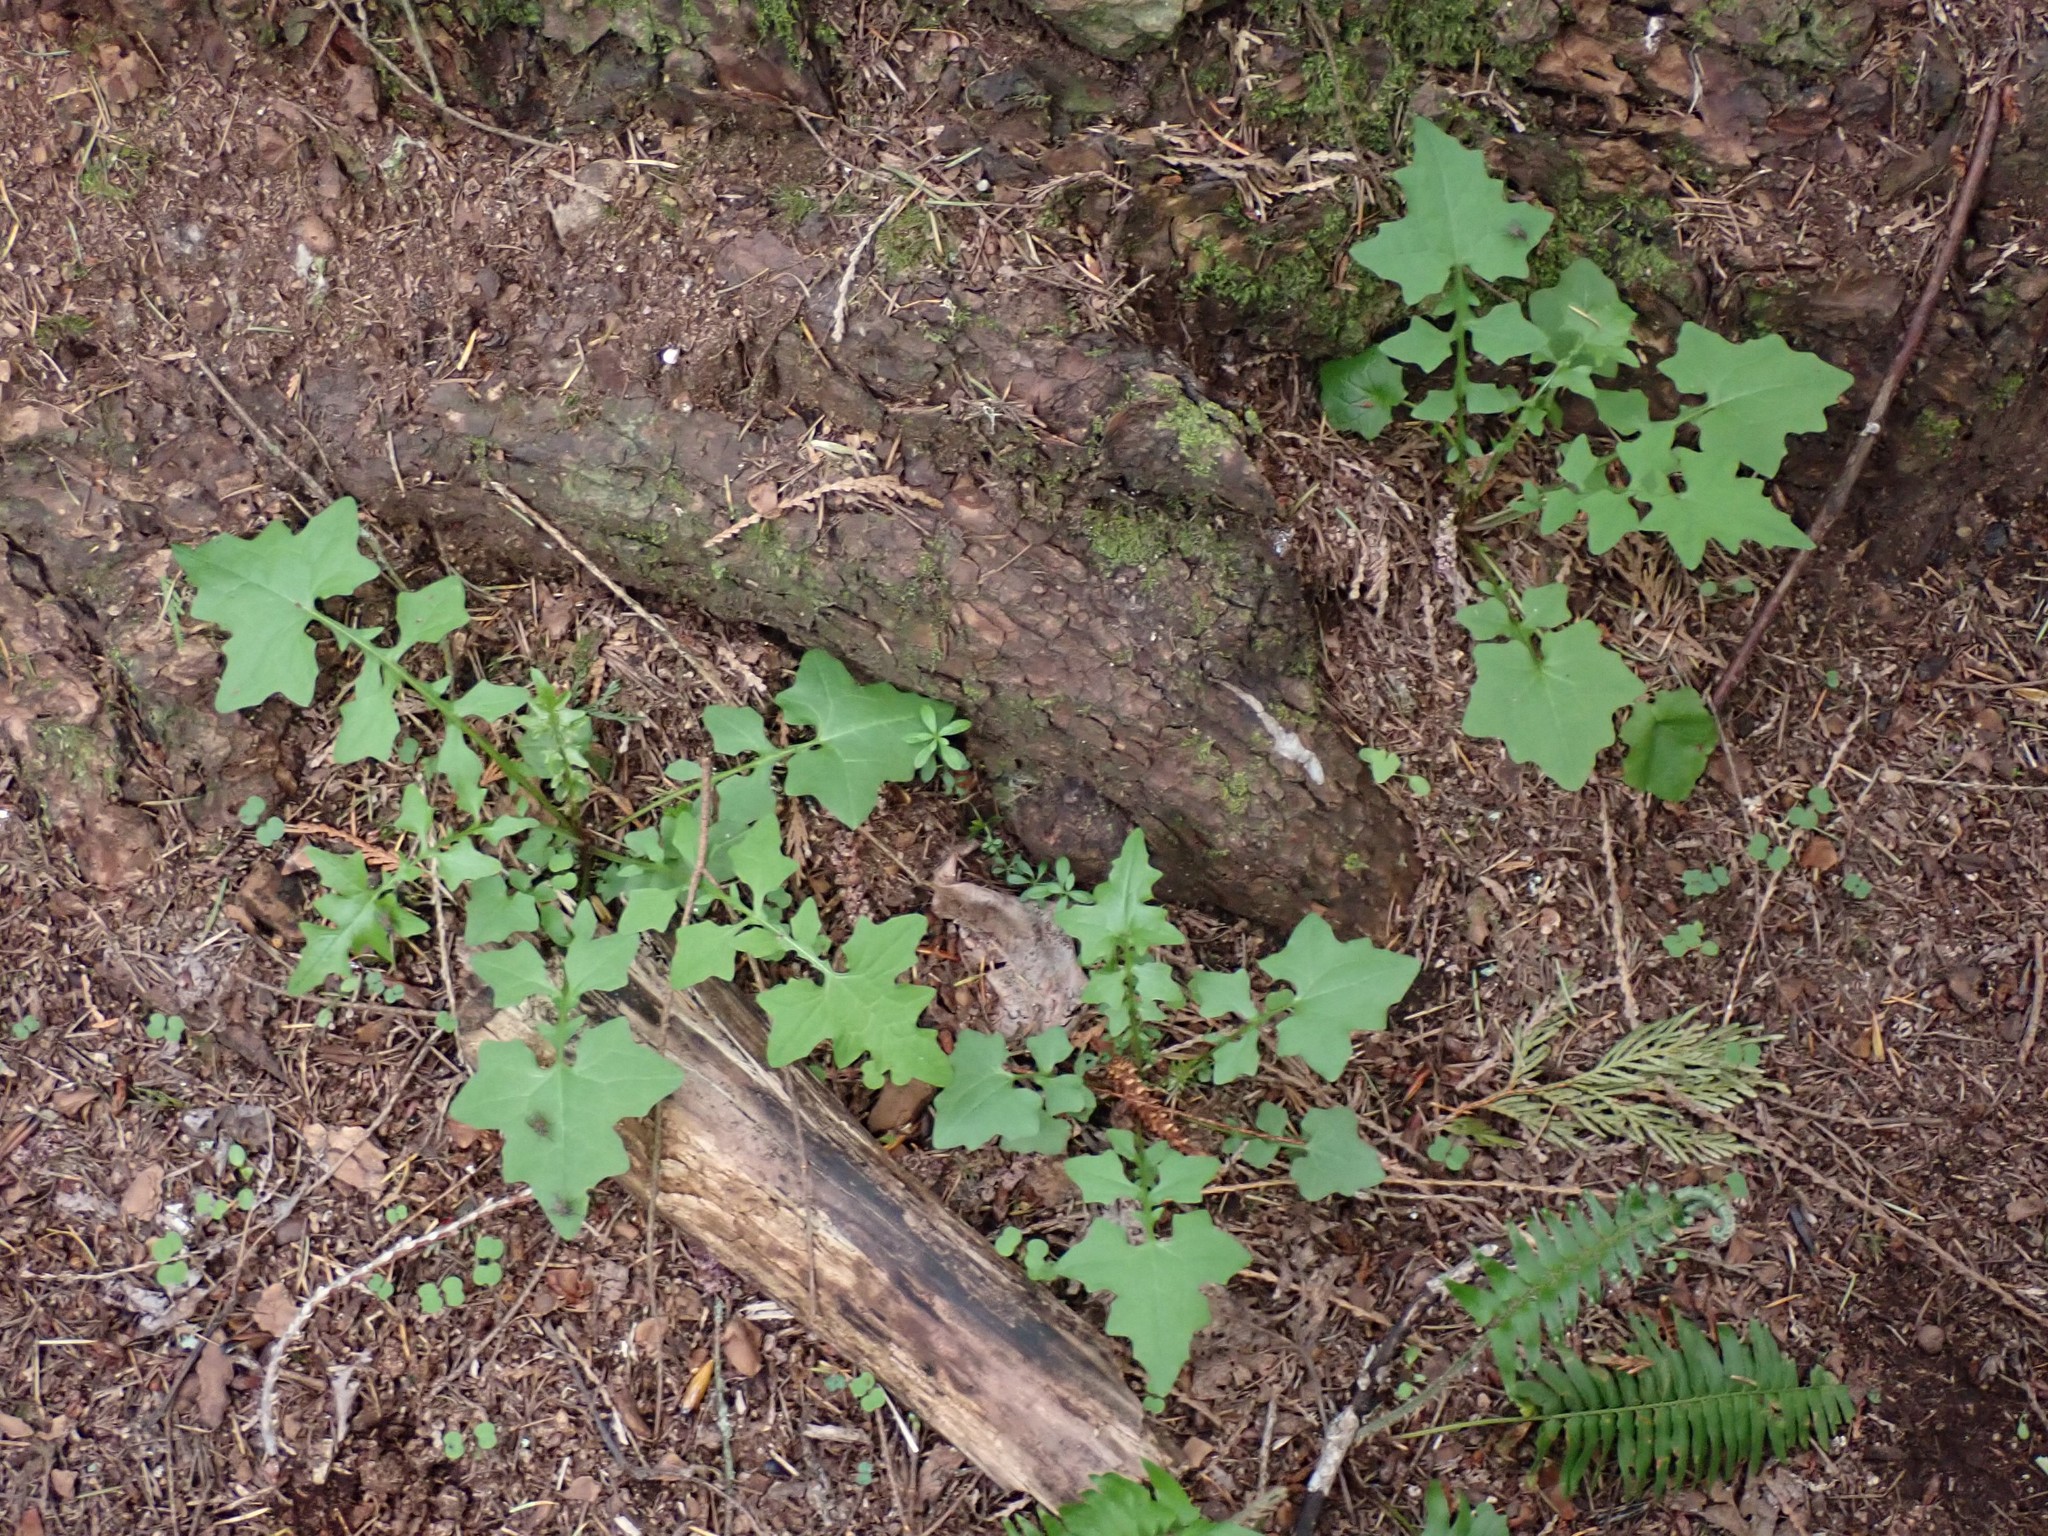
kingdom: Plantae
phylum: Tracheophyta
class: Magnoliopsida
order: Asterales
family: Asteraceae
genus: Mycelis
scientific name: Mycelis muralis
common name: Wall lettuce
